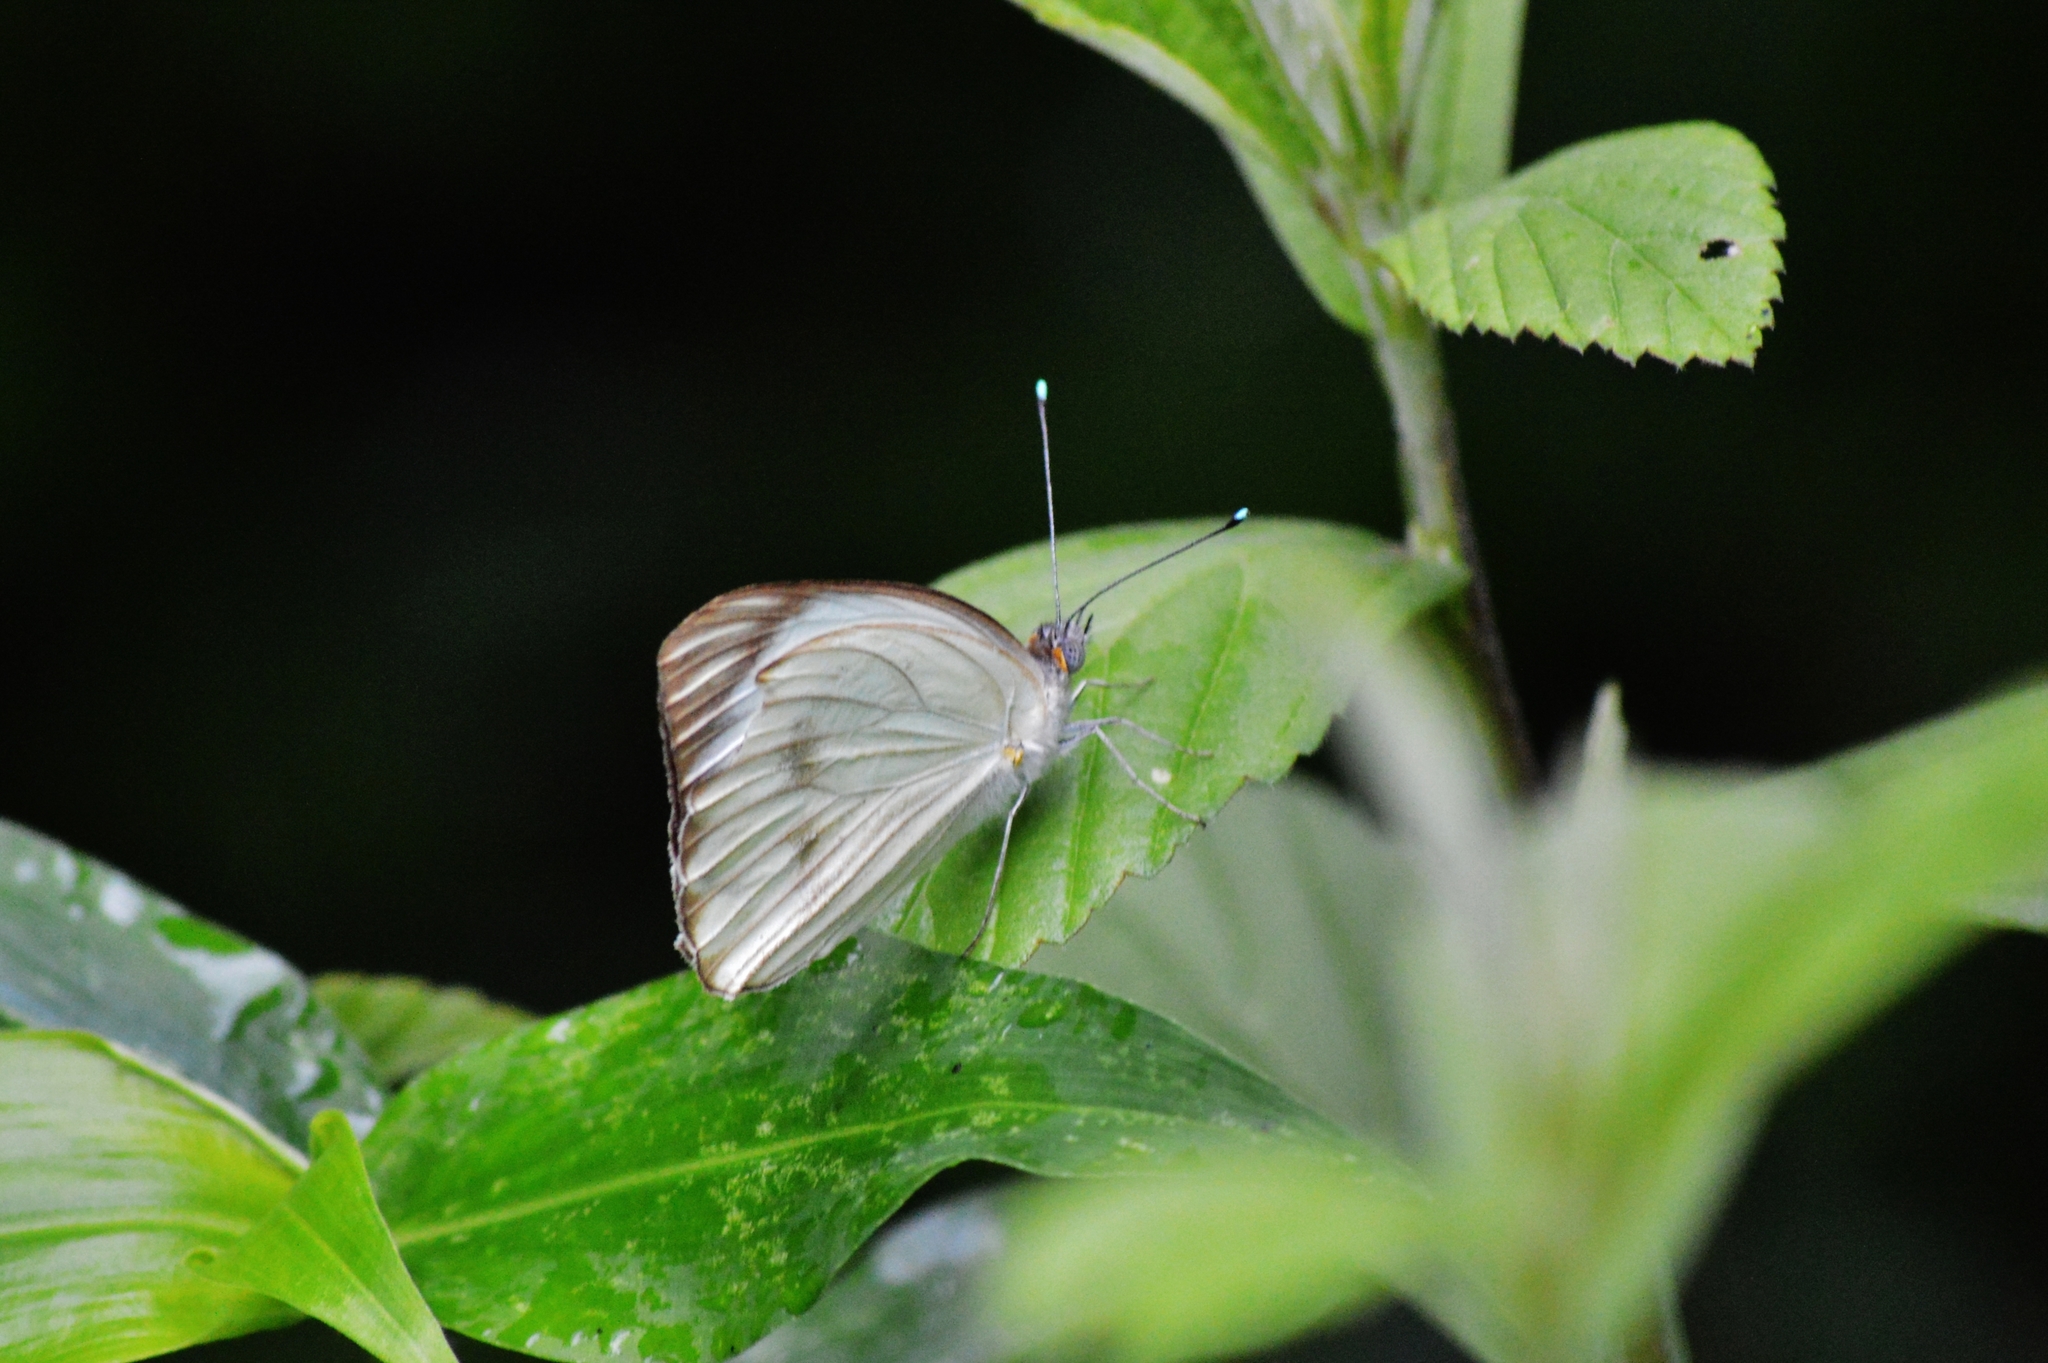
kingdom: Animalia
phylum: Arthropoda
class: Insecta
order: Lepidoptera
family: Pieridae
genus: Ascia
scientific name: Ascia monuste
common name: Great southern white
